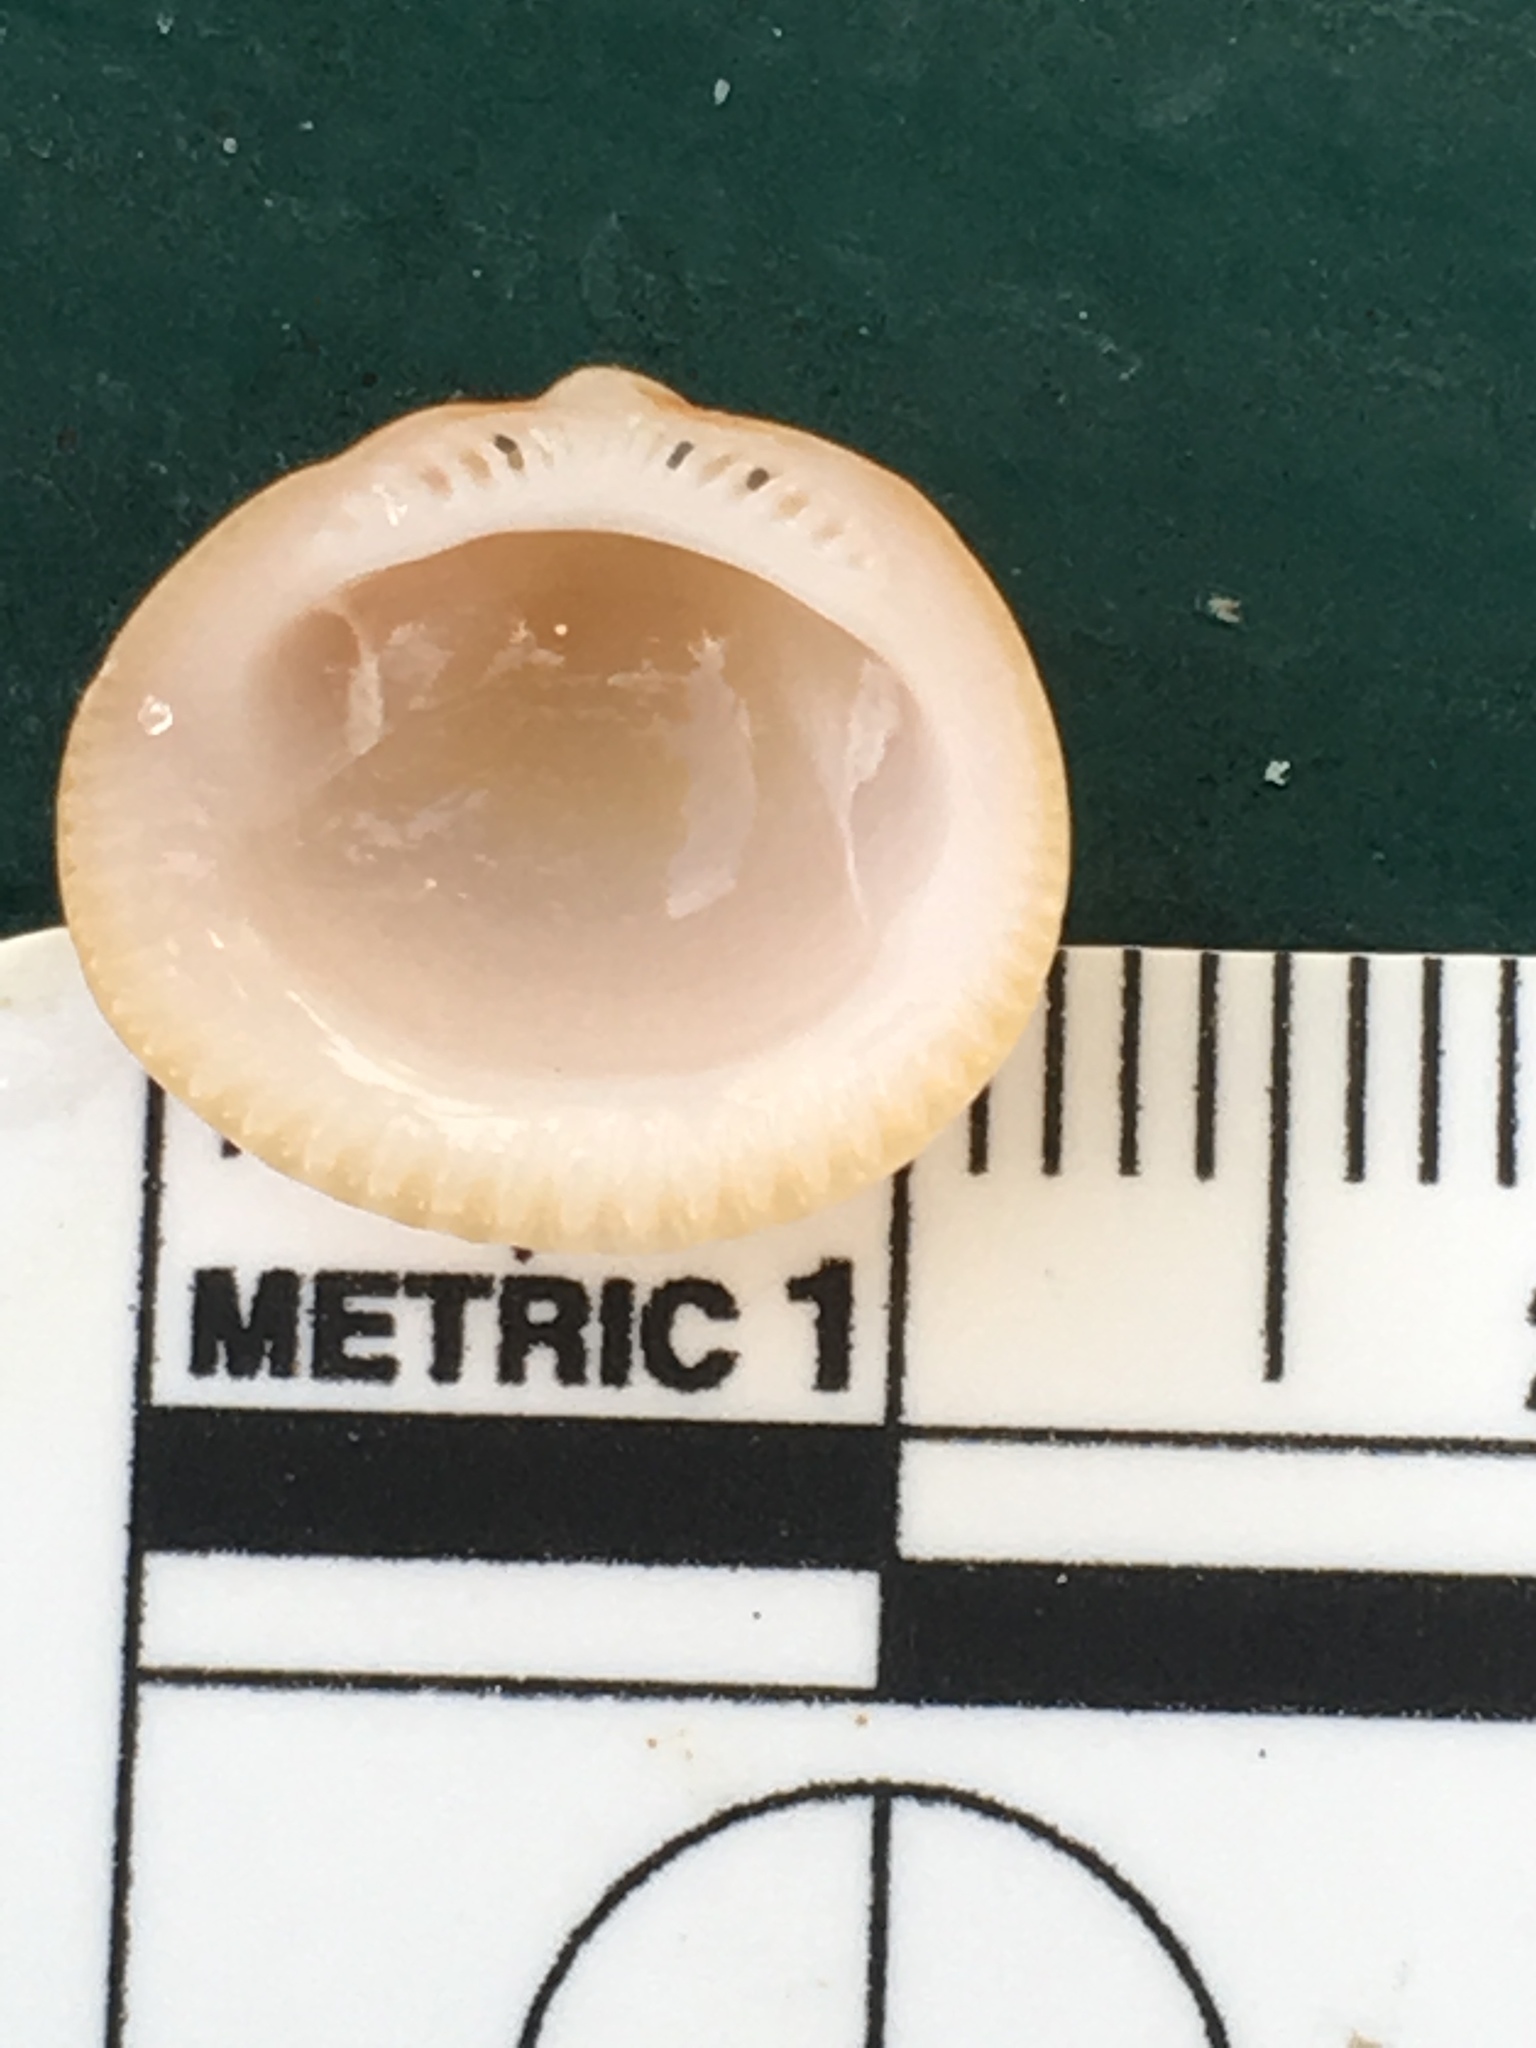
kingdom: Animalia
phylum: Mollusca
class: Bivalvia
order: Arcida
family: Glycymerididae
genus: Glycymeris
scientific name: Glycymeris spectralis
